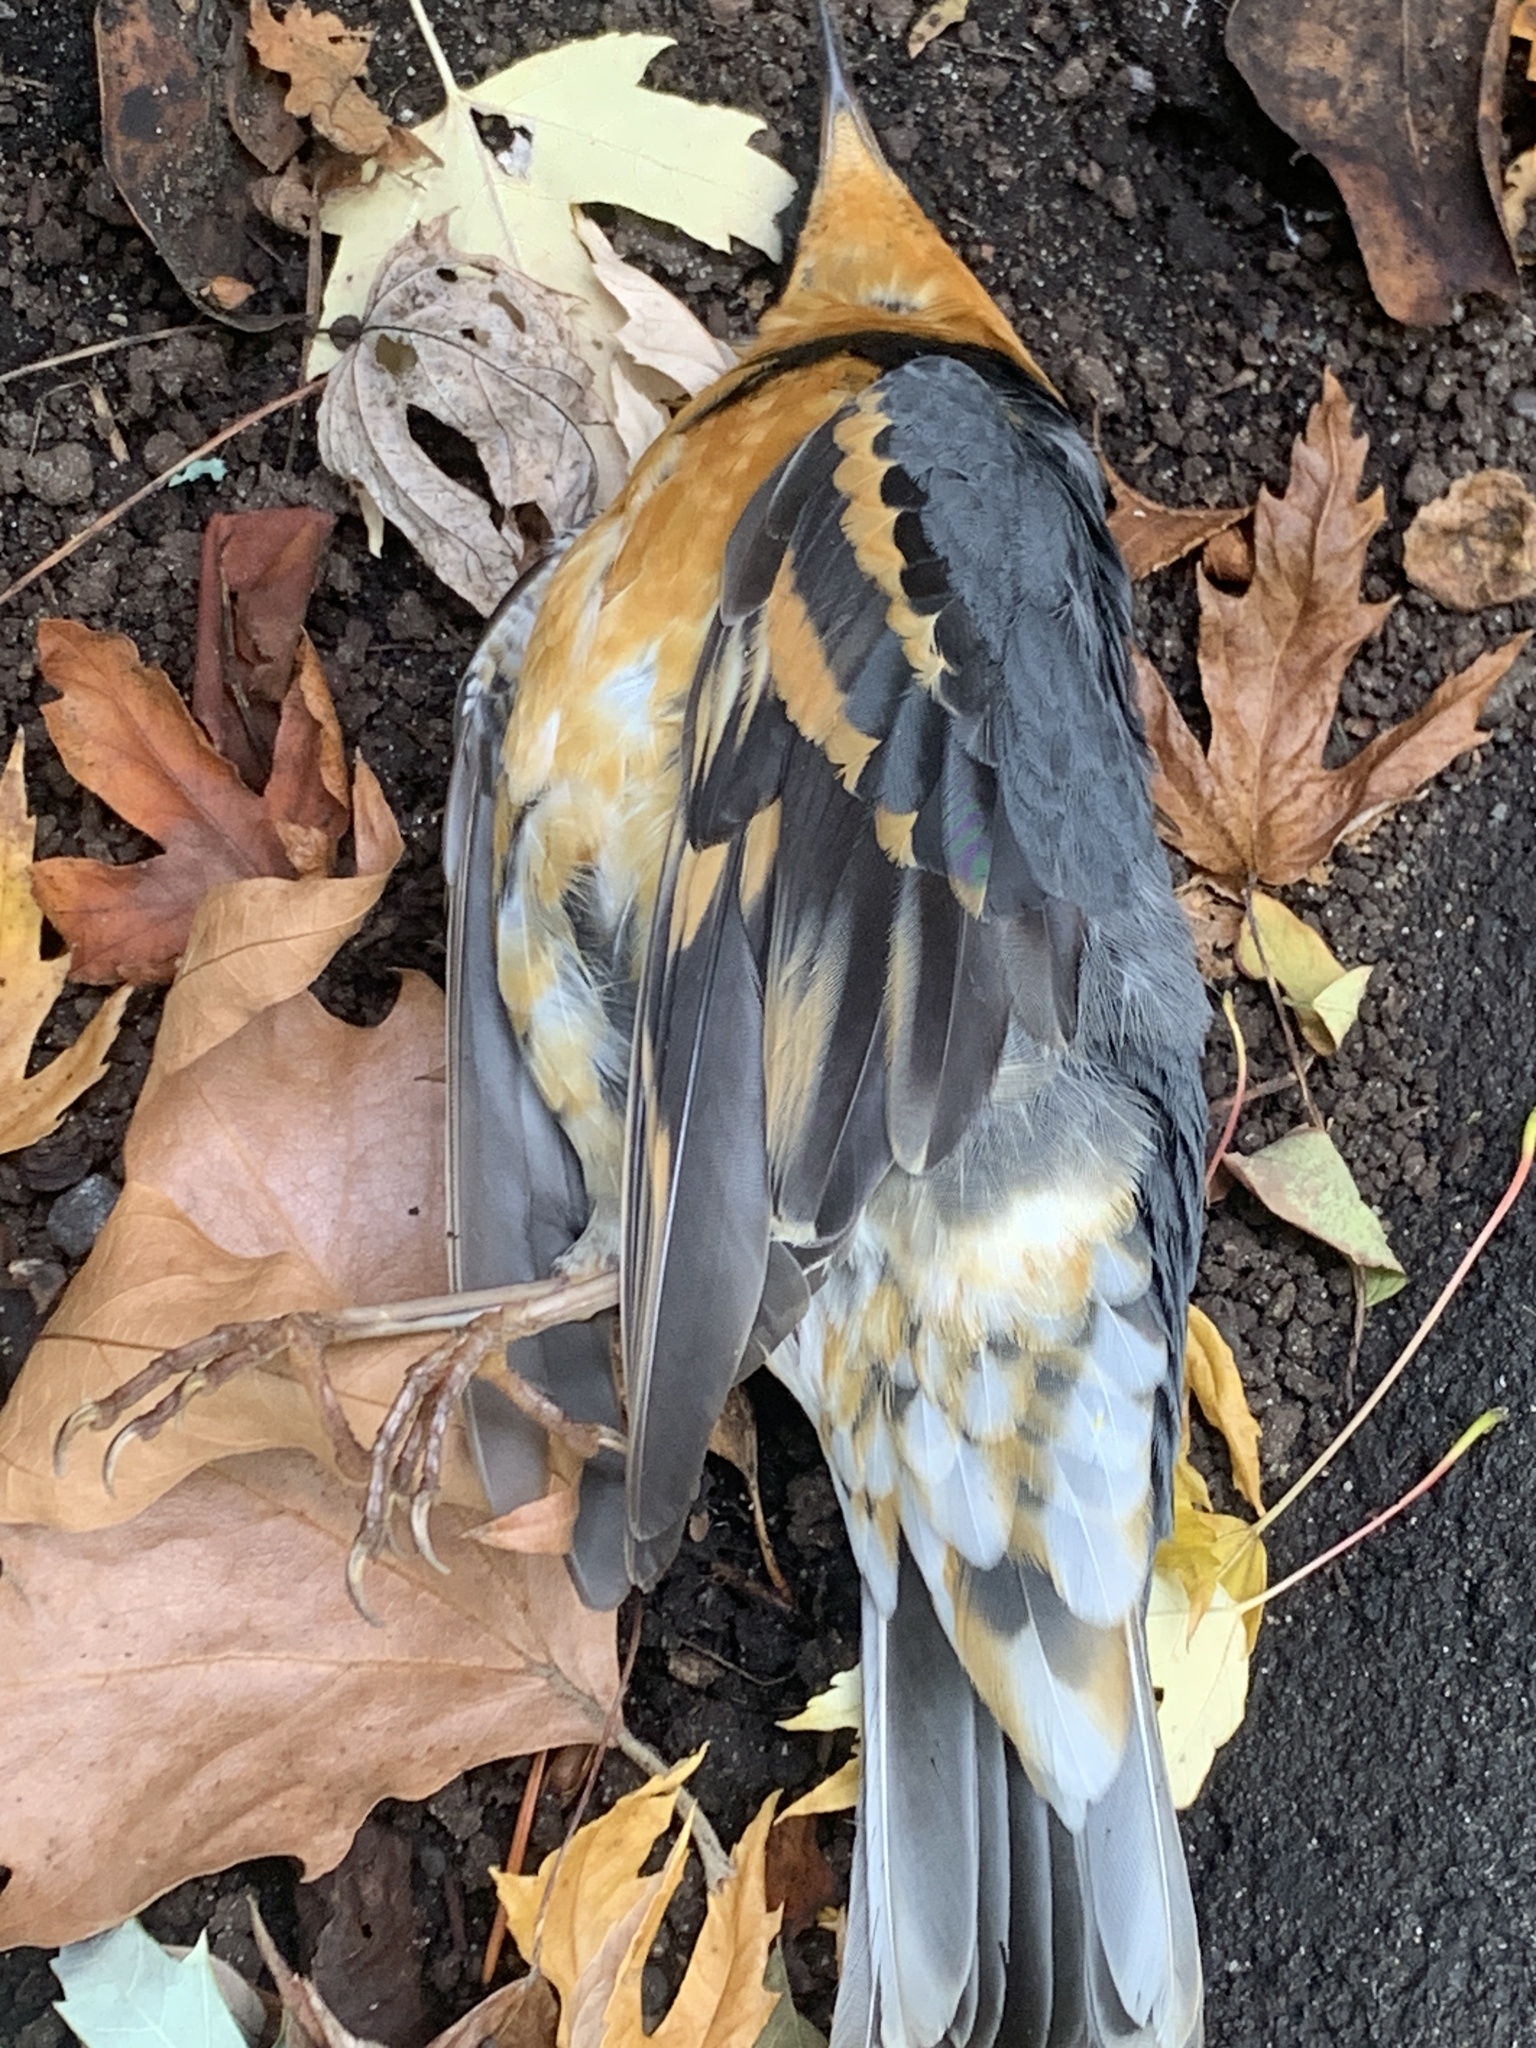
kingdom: Animalia
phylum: Chordata
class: Aves
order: Passeriformes
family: Turdidae
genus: Ixoreus
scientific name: Ixoreus naevius
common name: Varied thrush
